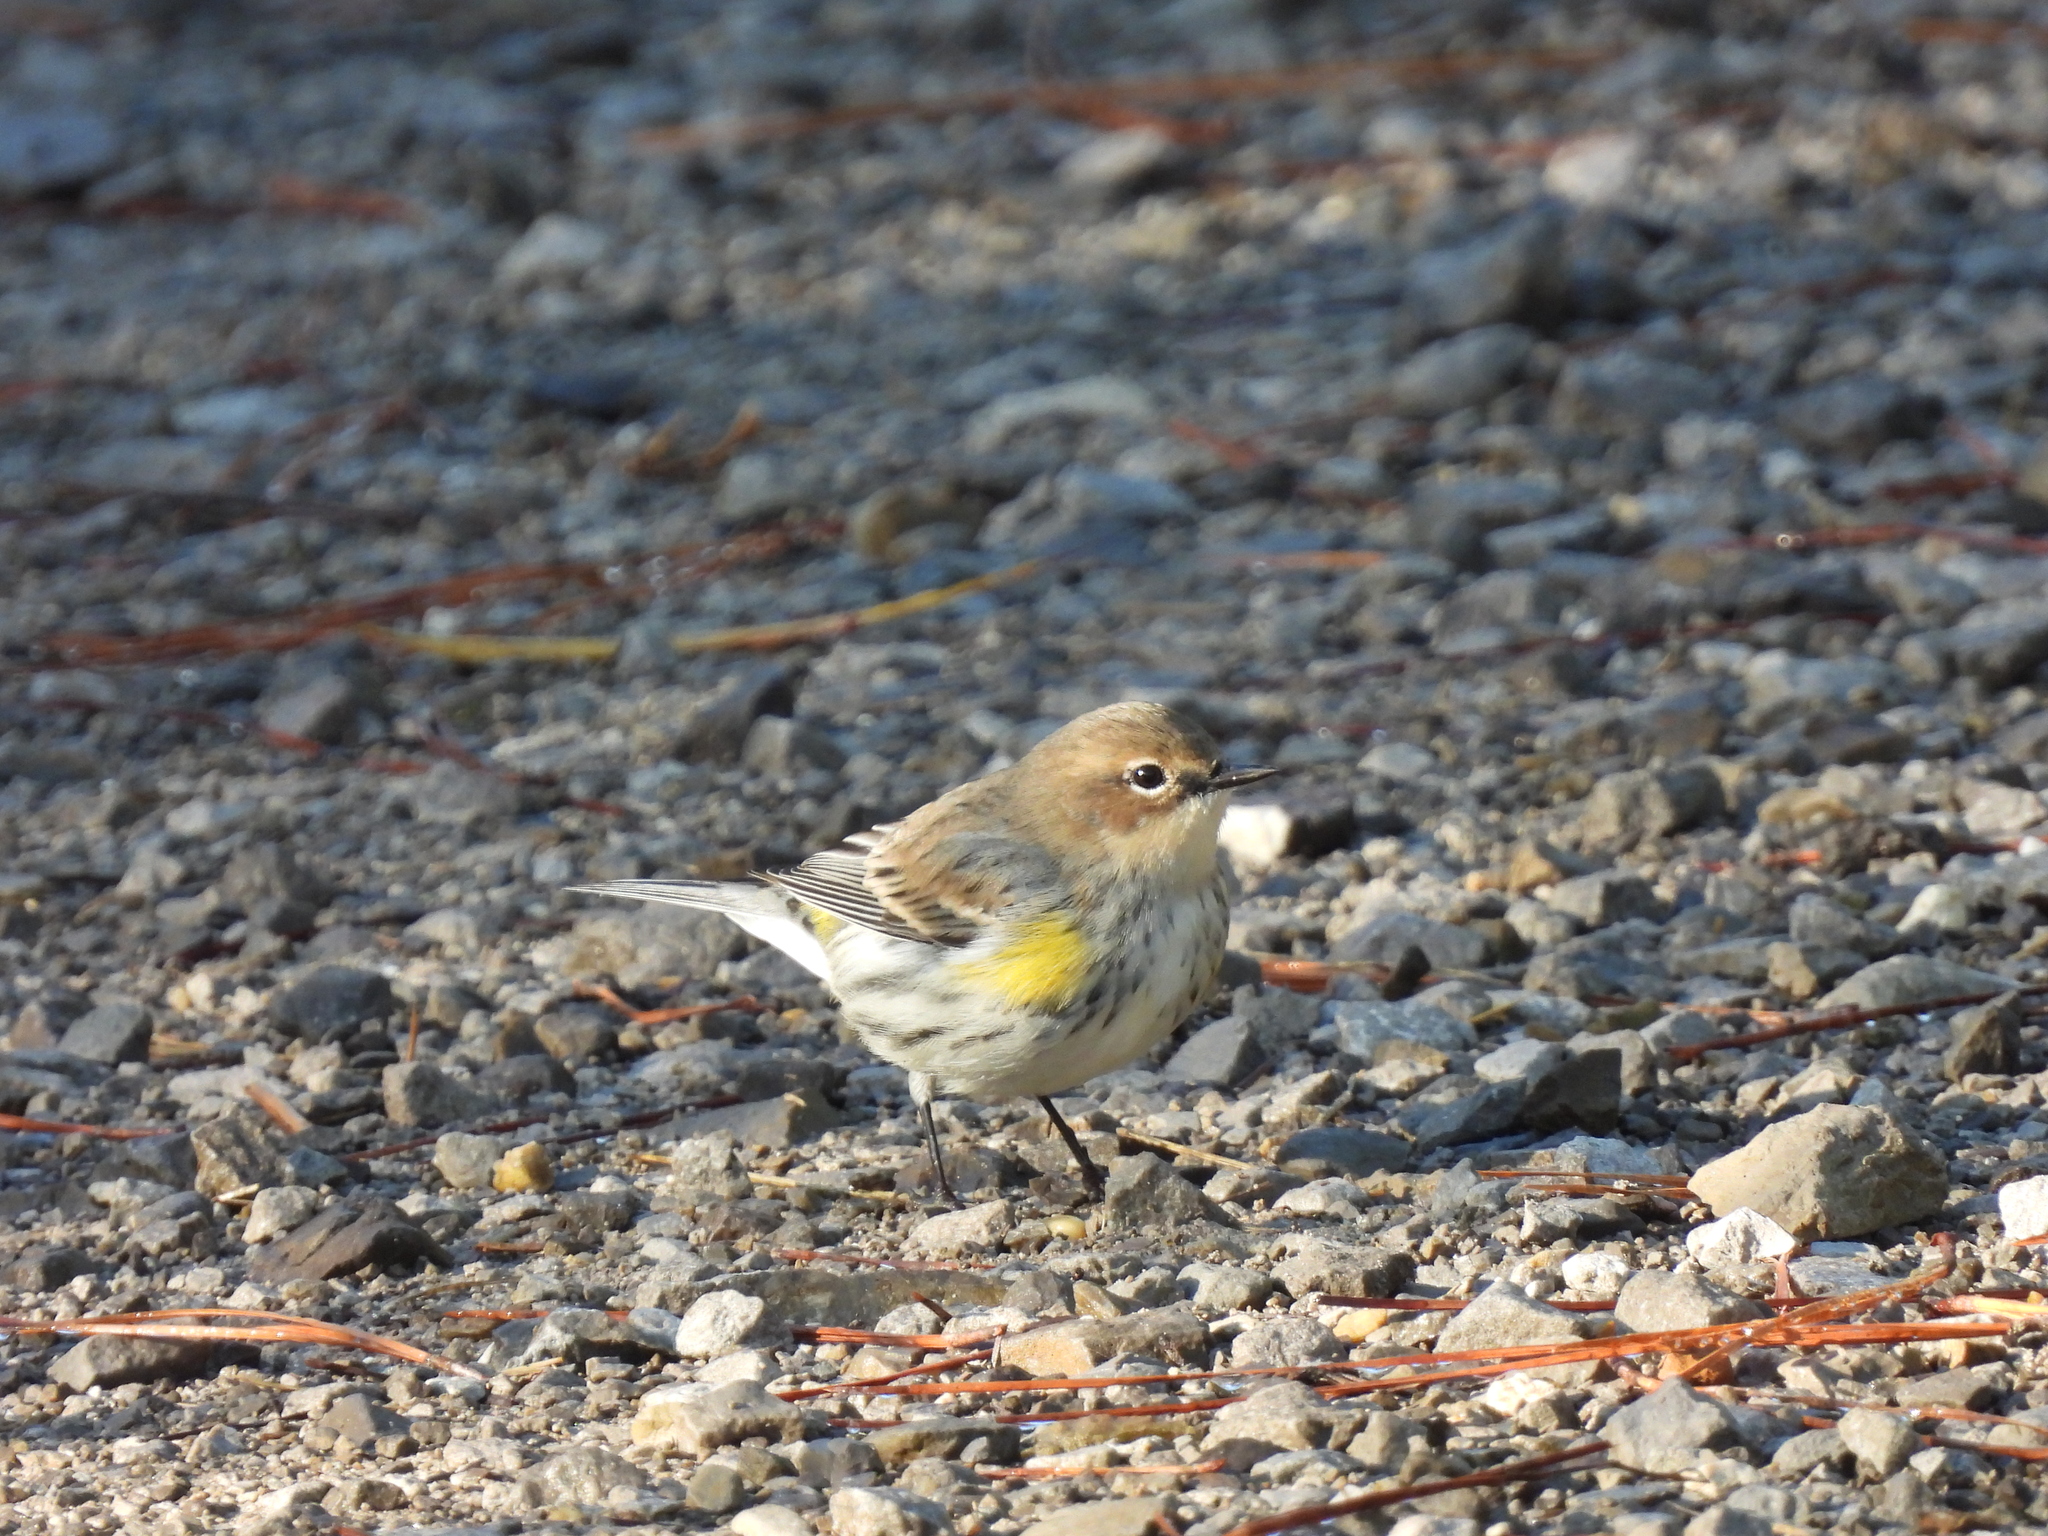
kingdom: Animalia
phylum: Chordata
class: Aves
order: Passeriformes
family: Parulidae
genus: Setophaga
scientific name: Setophaga coronata
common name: Myrtle warbler
